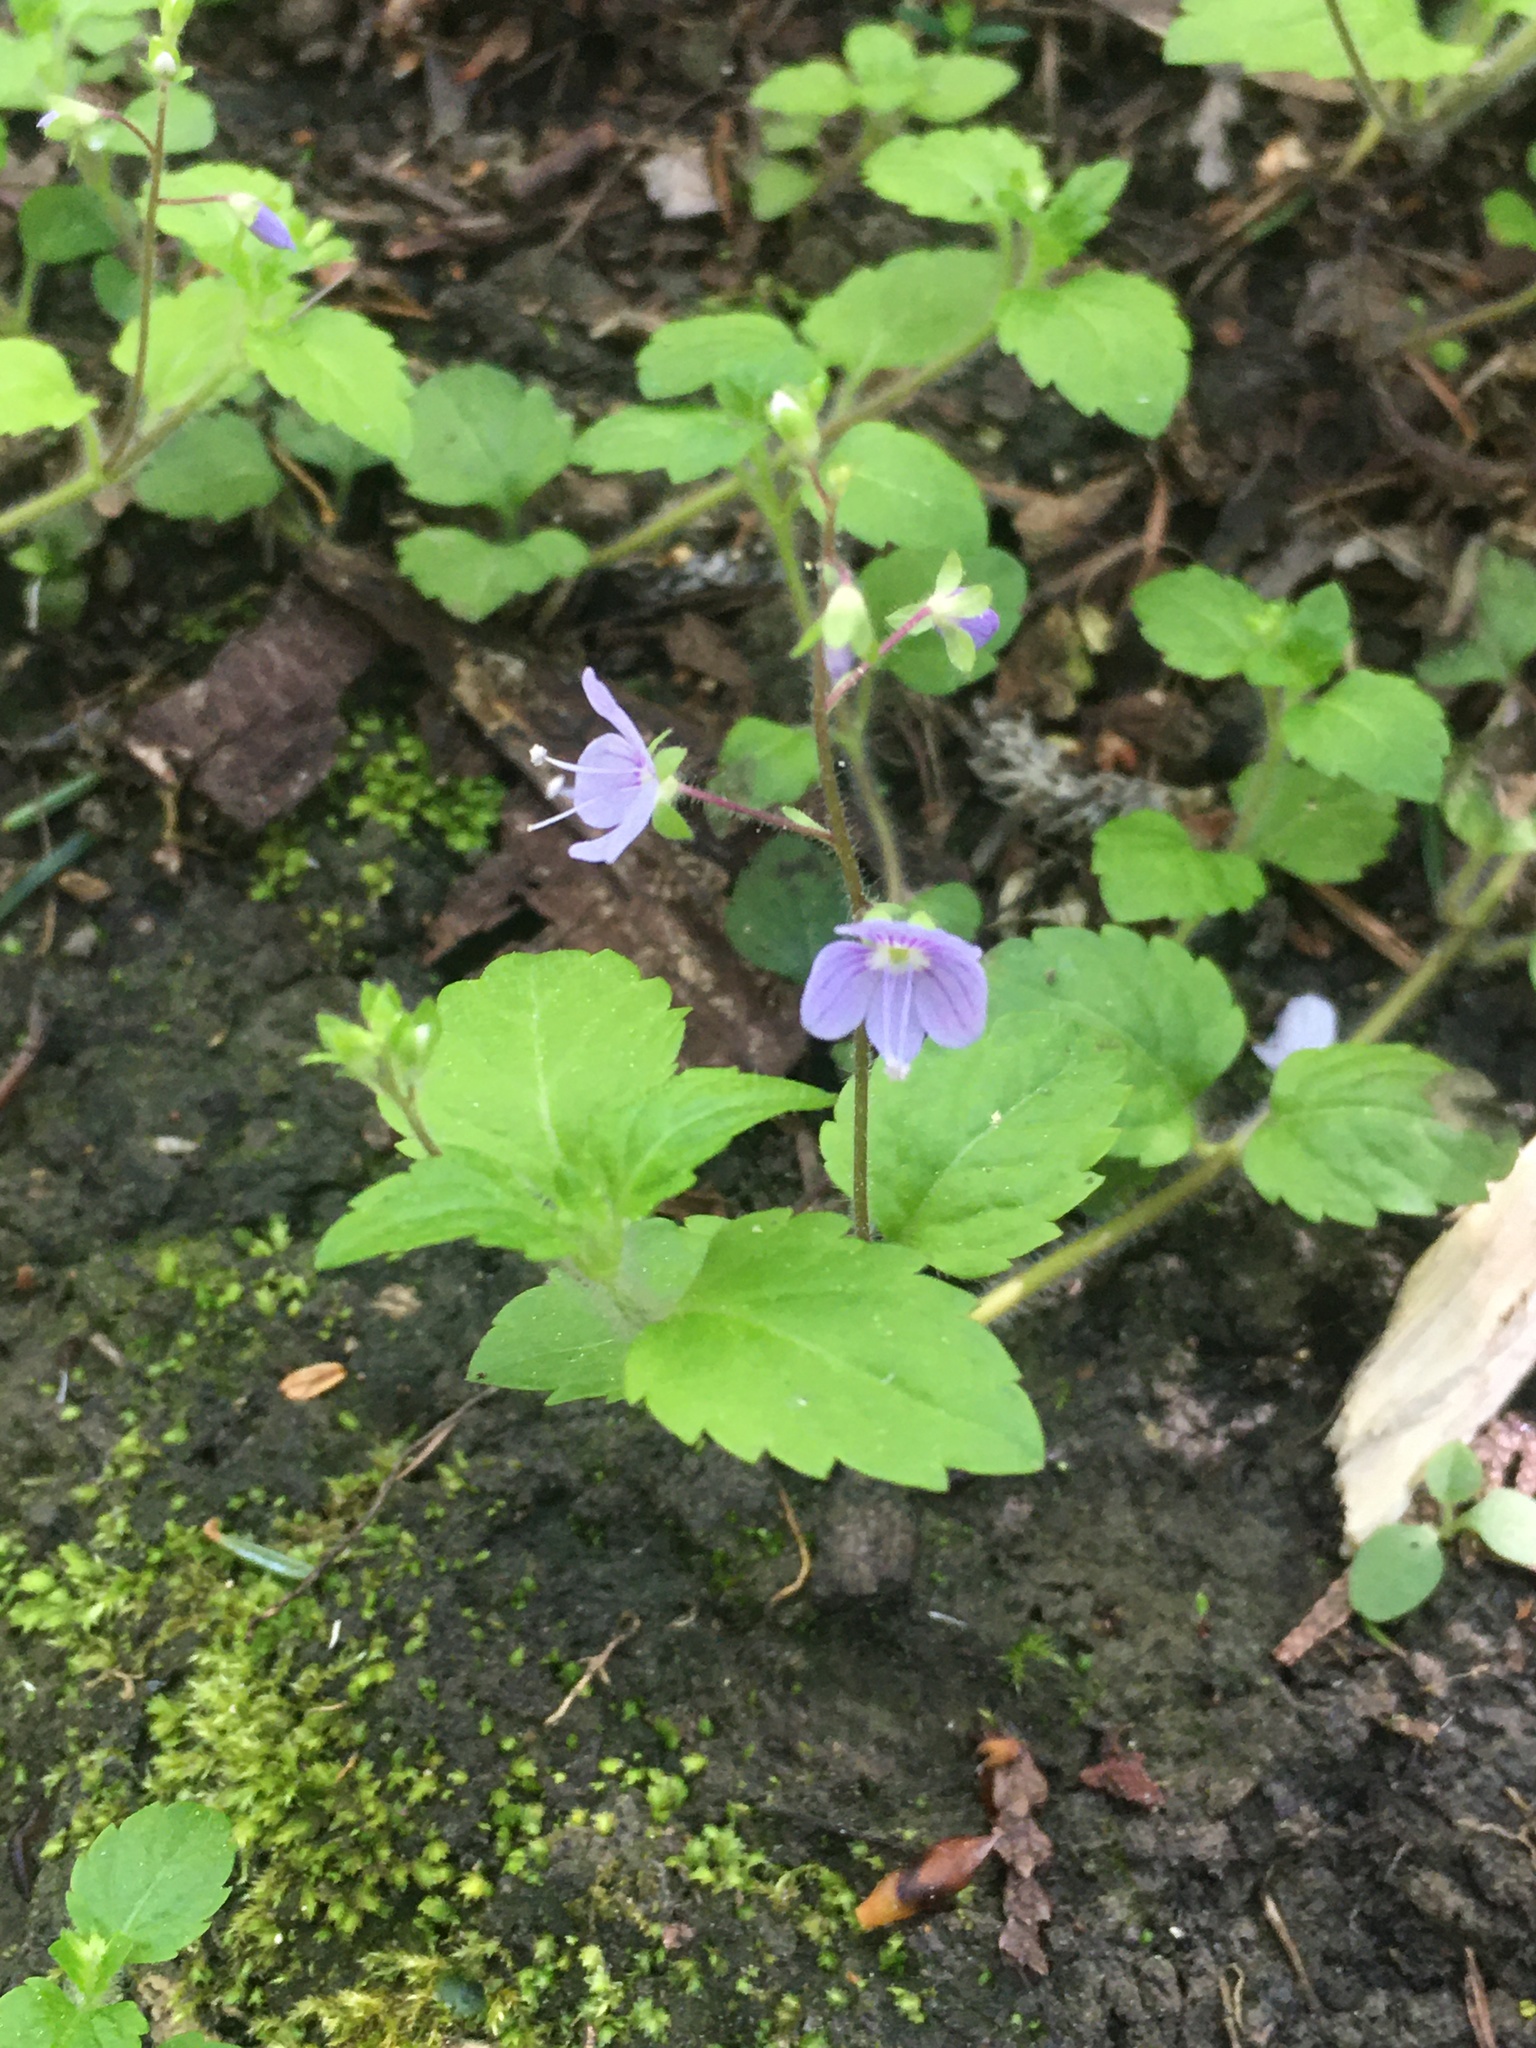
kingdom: Plantae
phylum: Tracheophyta
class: Magnoliopsida
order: Lamiales
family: Plantaginaceae
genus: Veronica
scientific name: Veronica montana
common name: Wood speedwell
